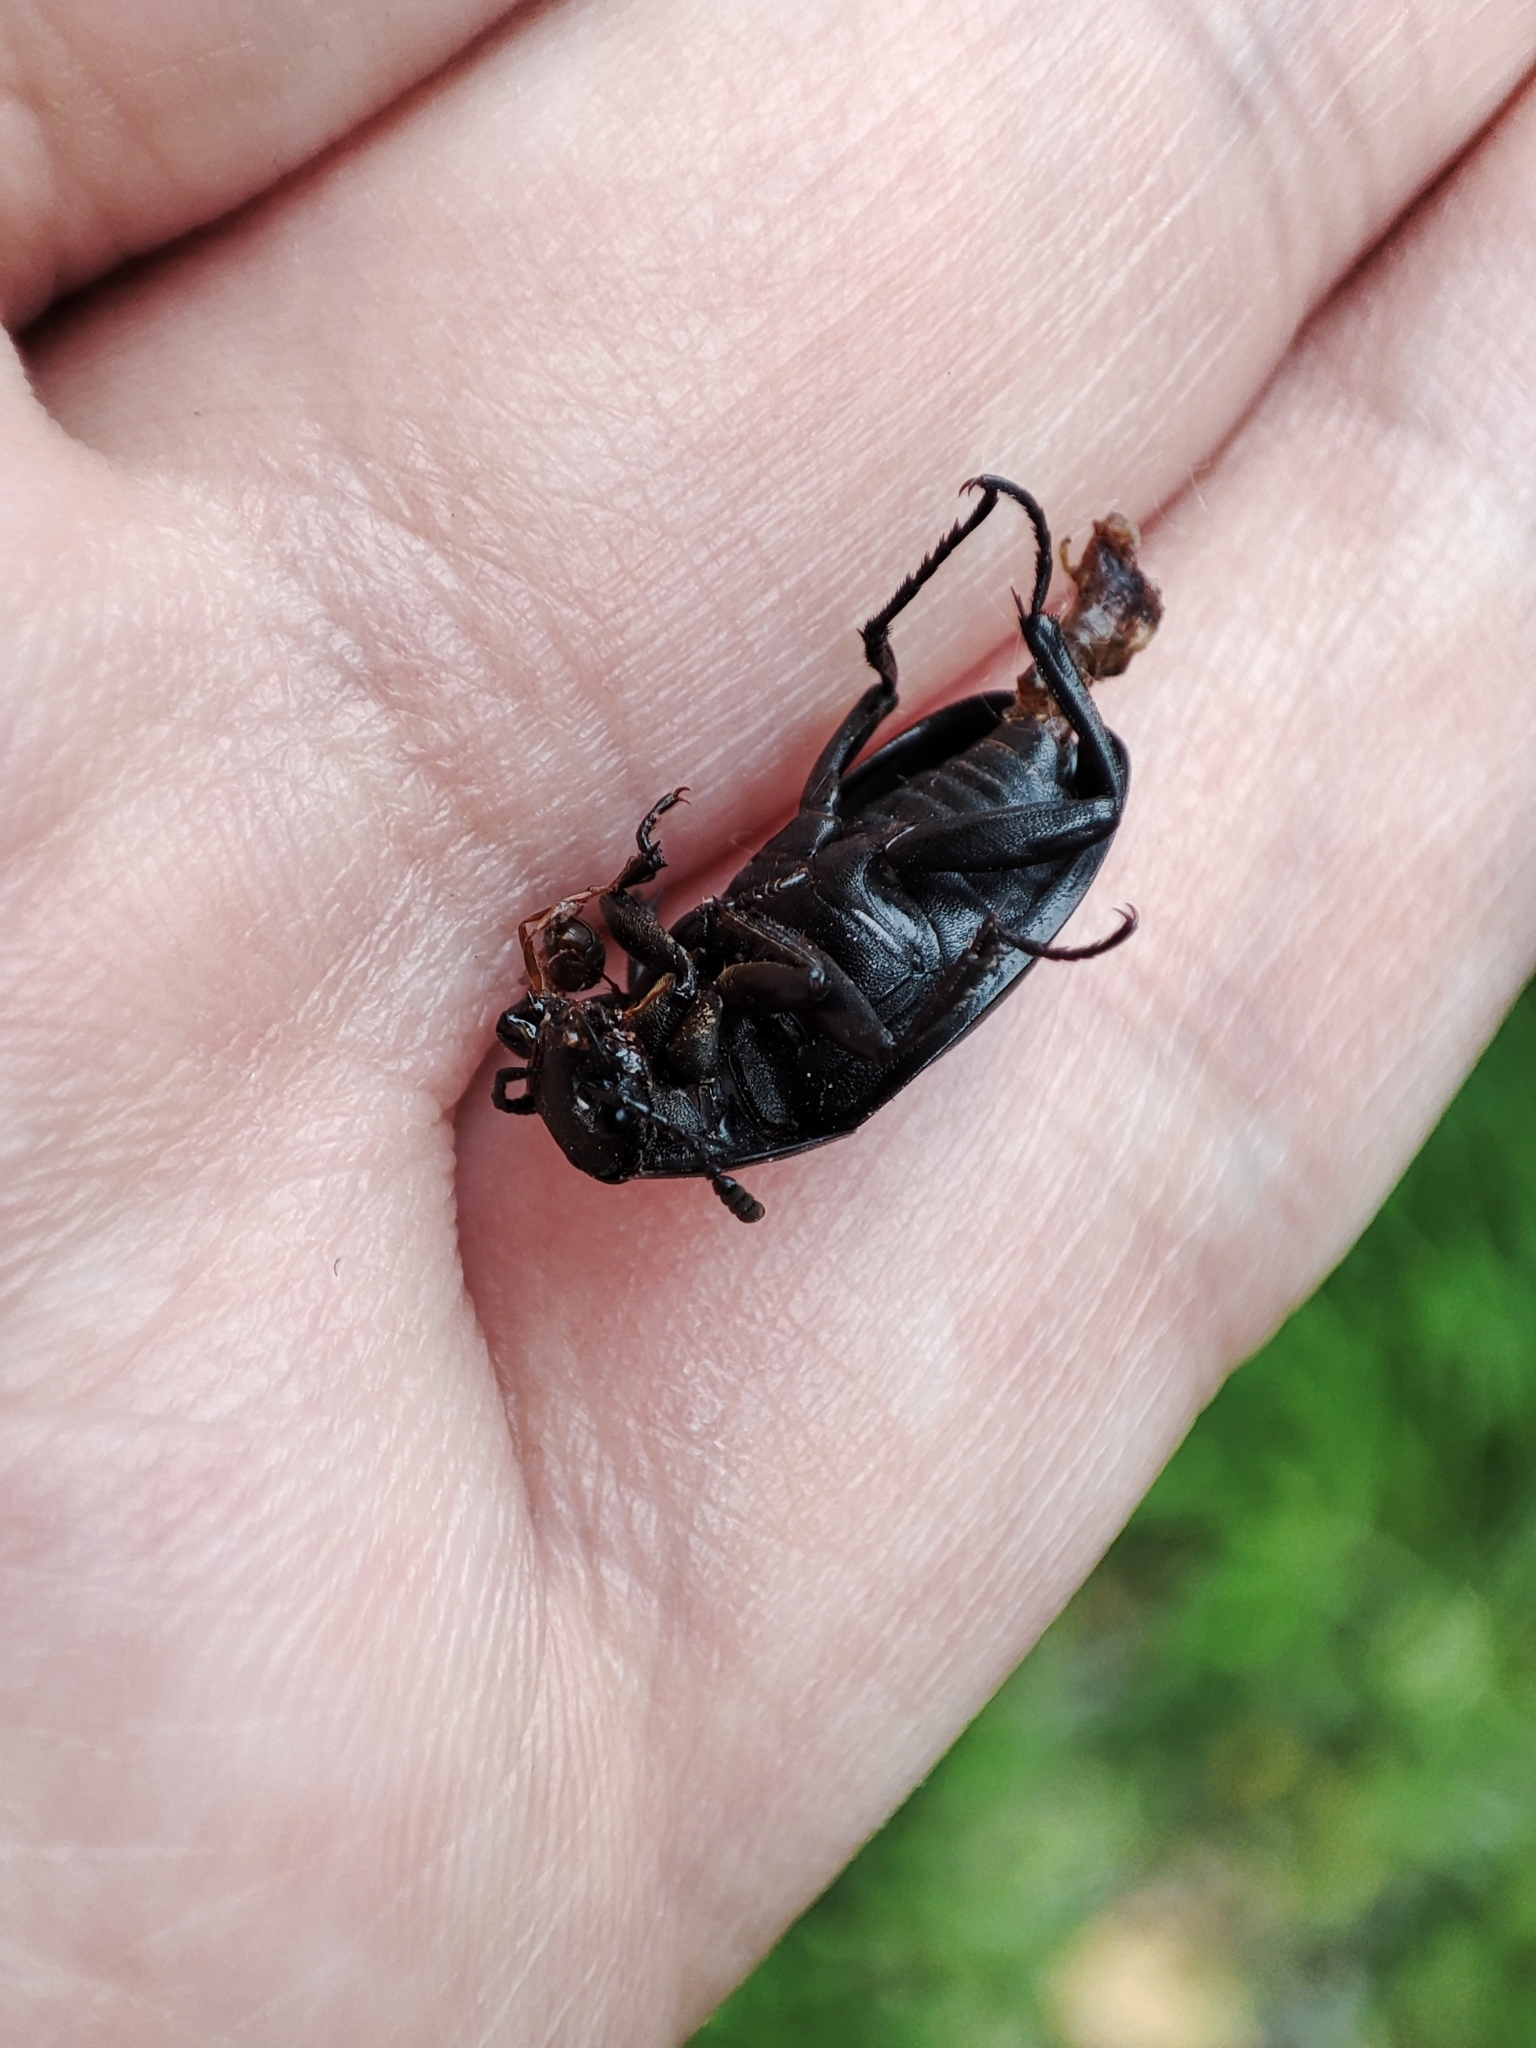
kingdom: Animalia
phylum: Arthropoda
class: Insecta
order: Coleoptera
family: Staphylinidae
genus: Silpha
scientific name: Silpha obscura
